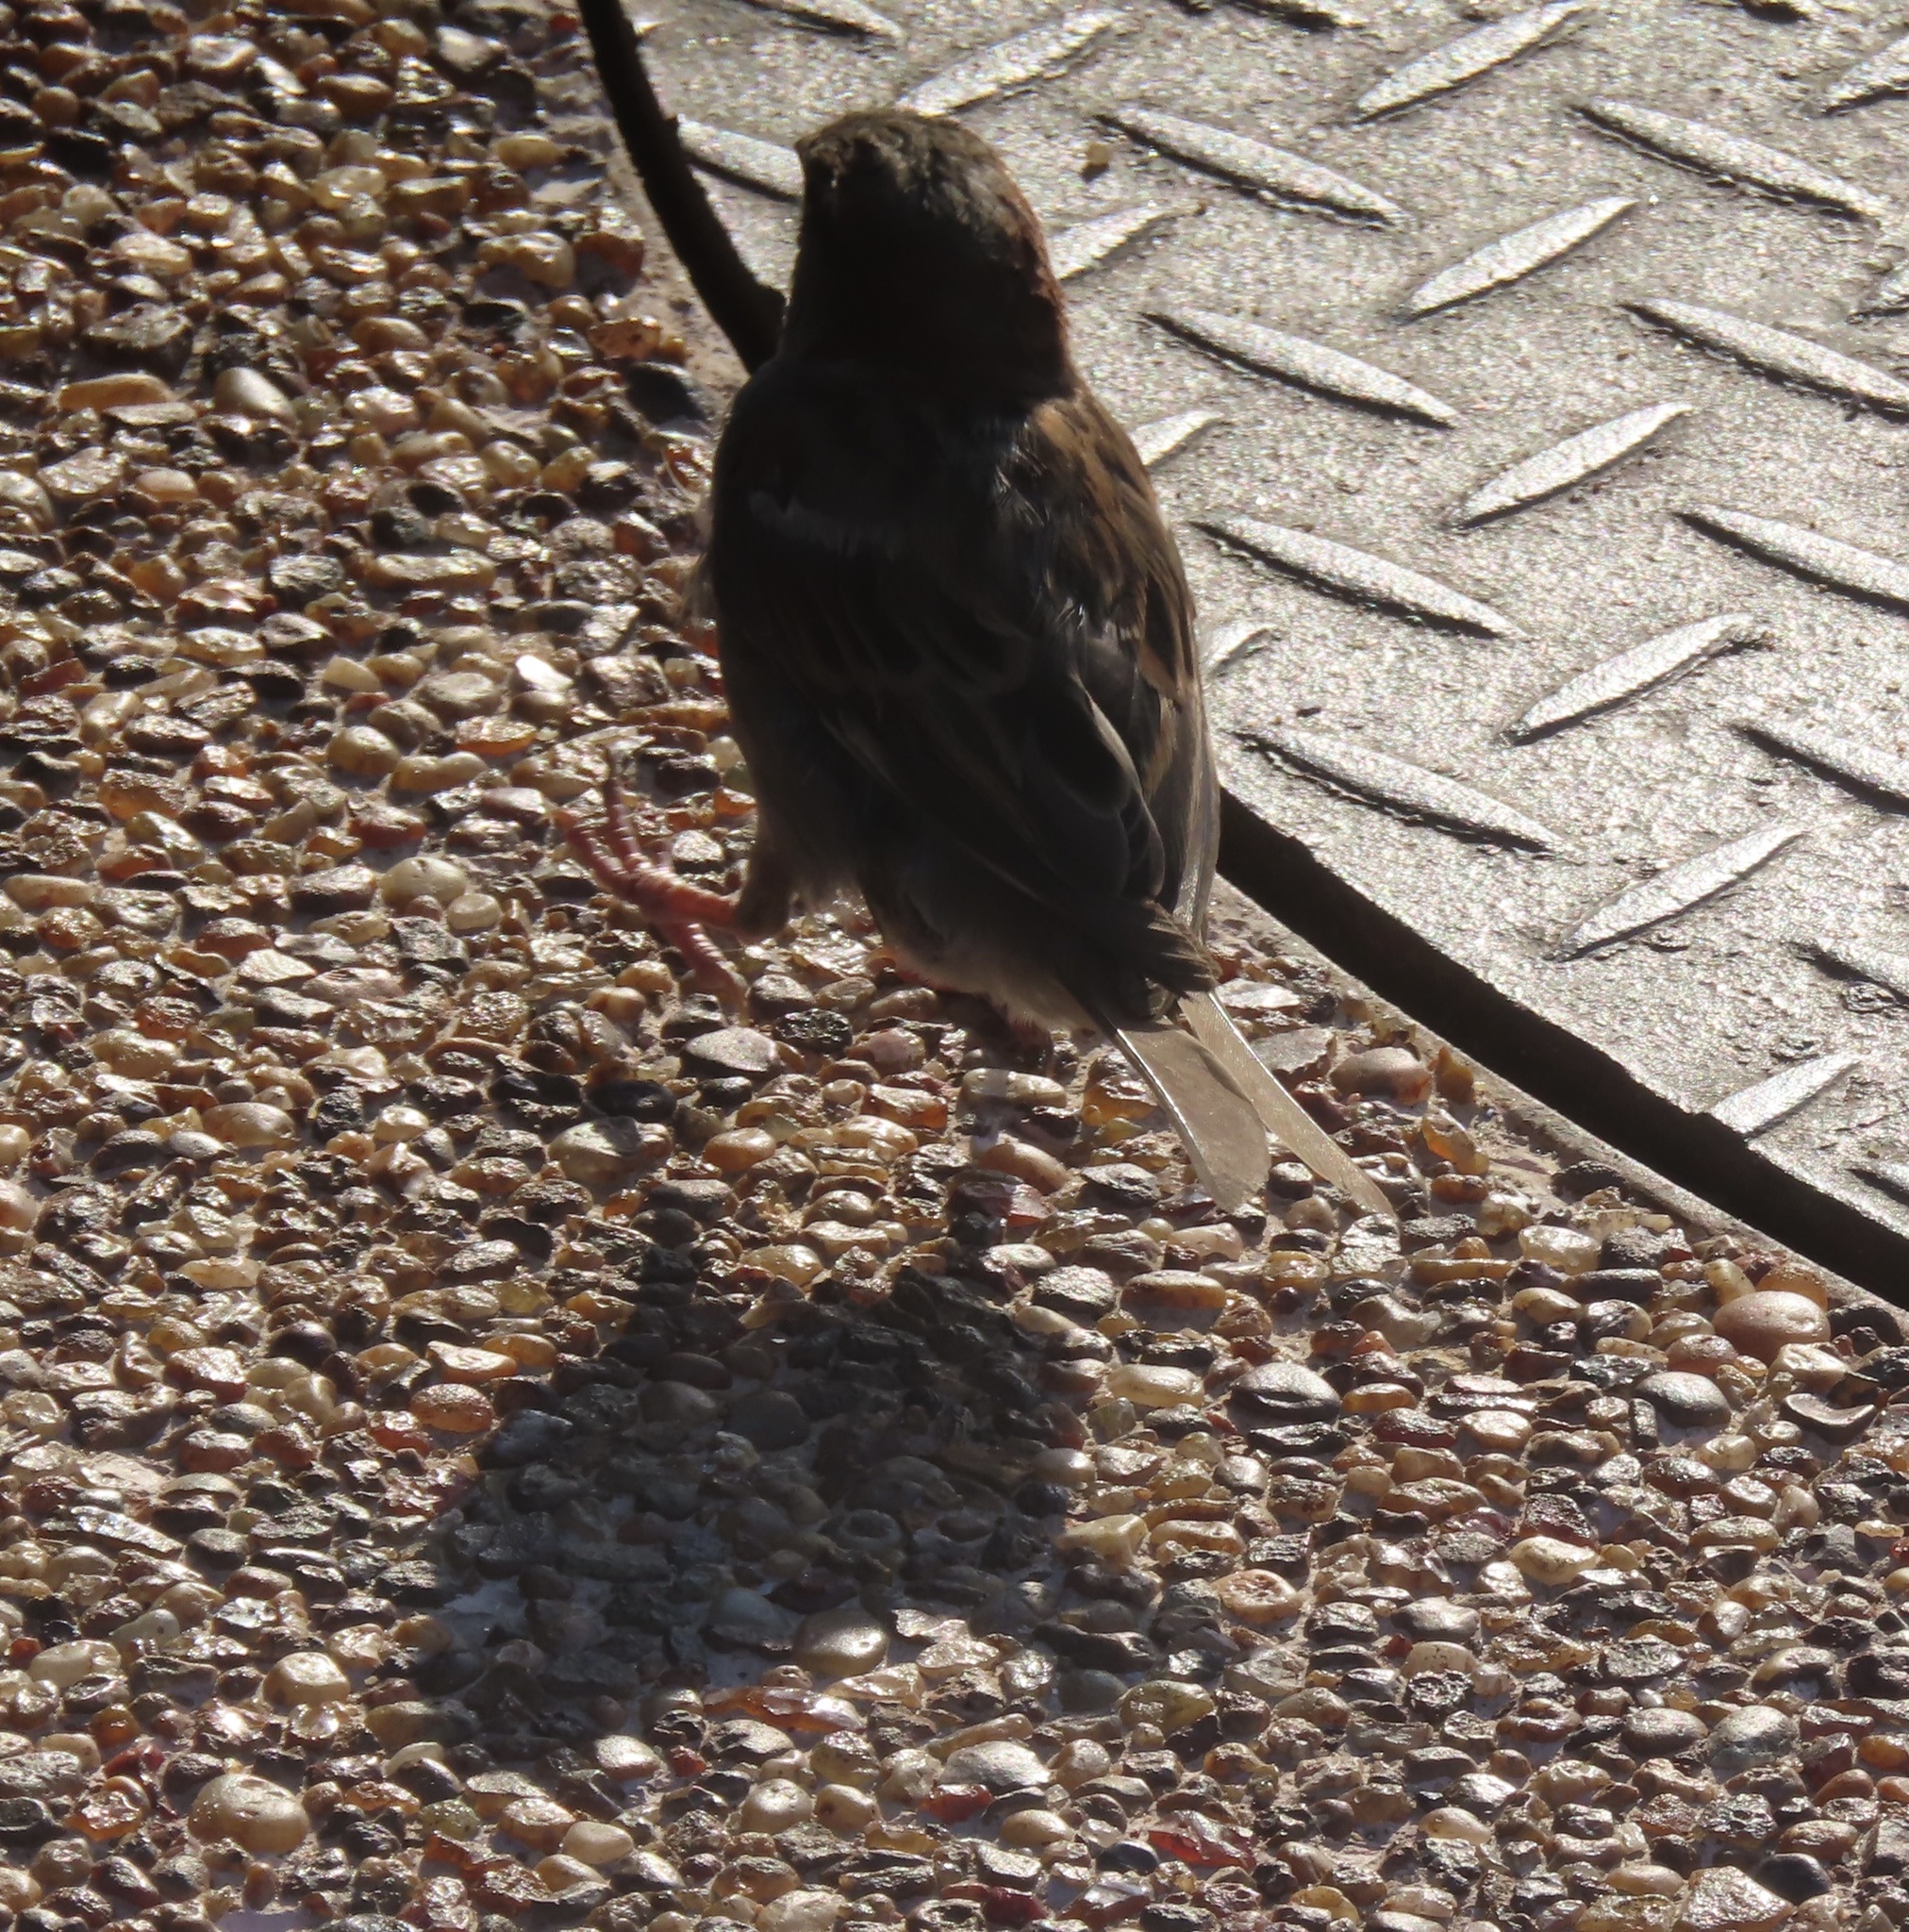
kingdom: Animalia
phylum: Chordata
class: Aves
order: Passeriformes
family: Passeridae
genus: Passer
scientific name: Passer domesticus
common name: House sparrow
